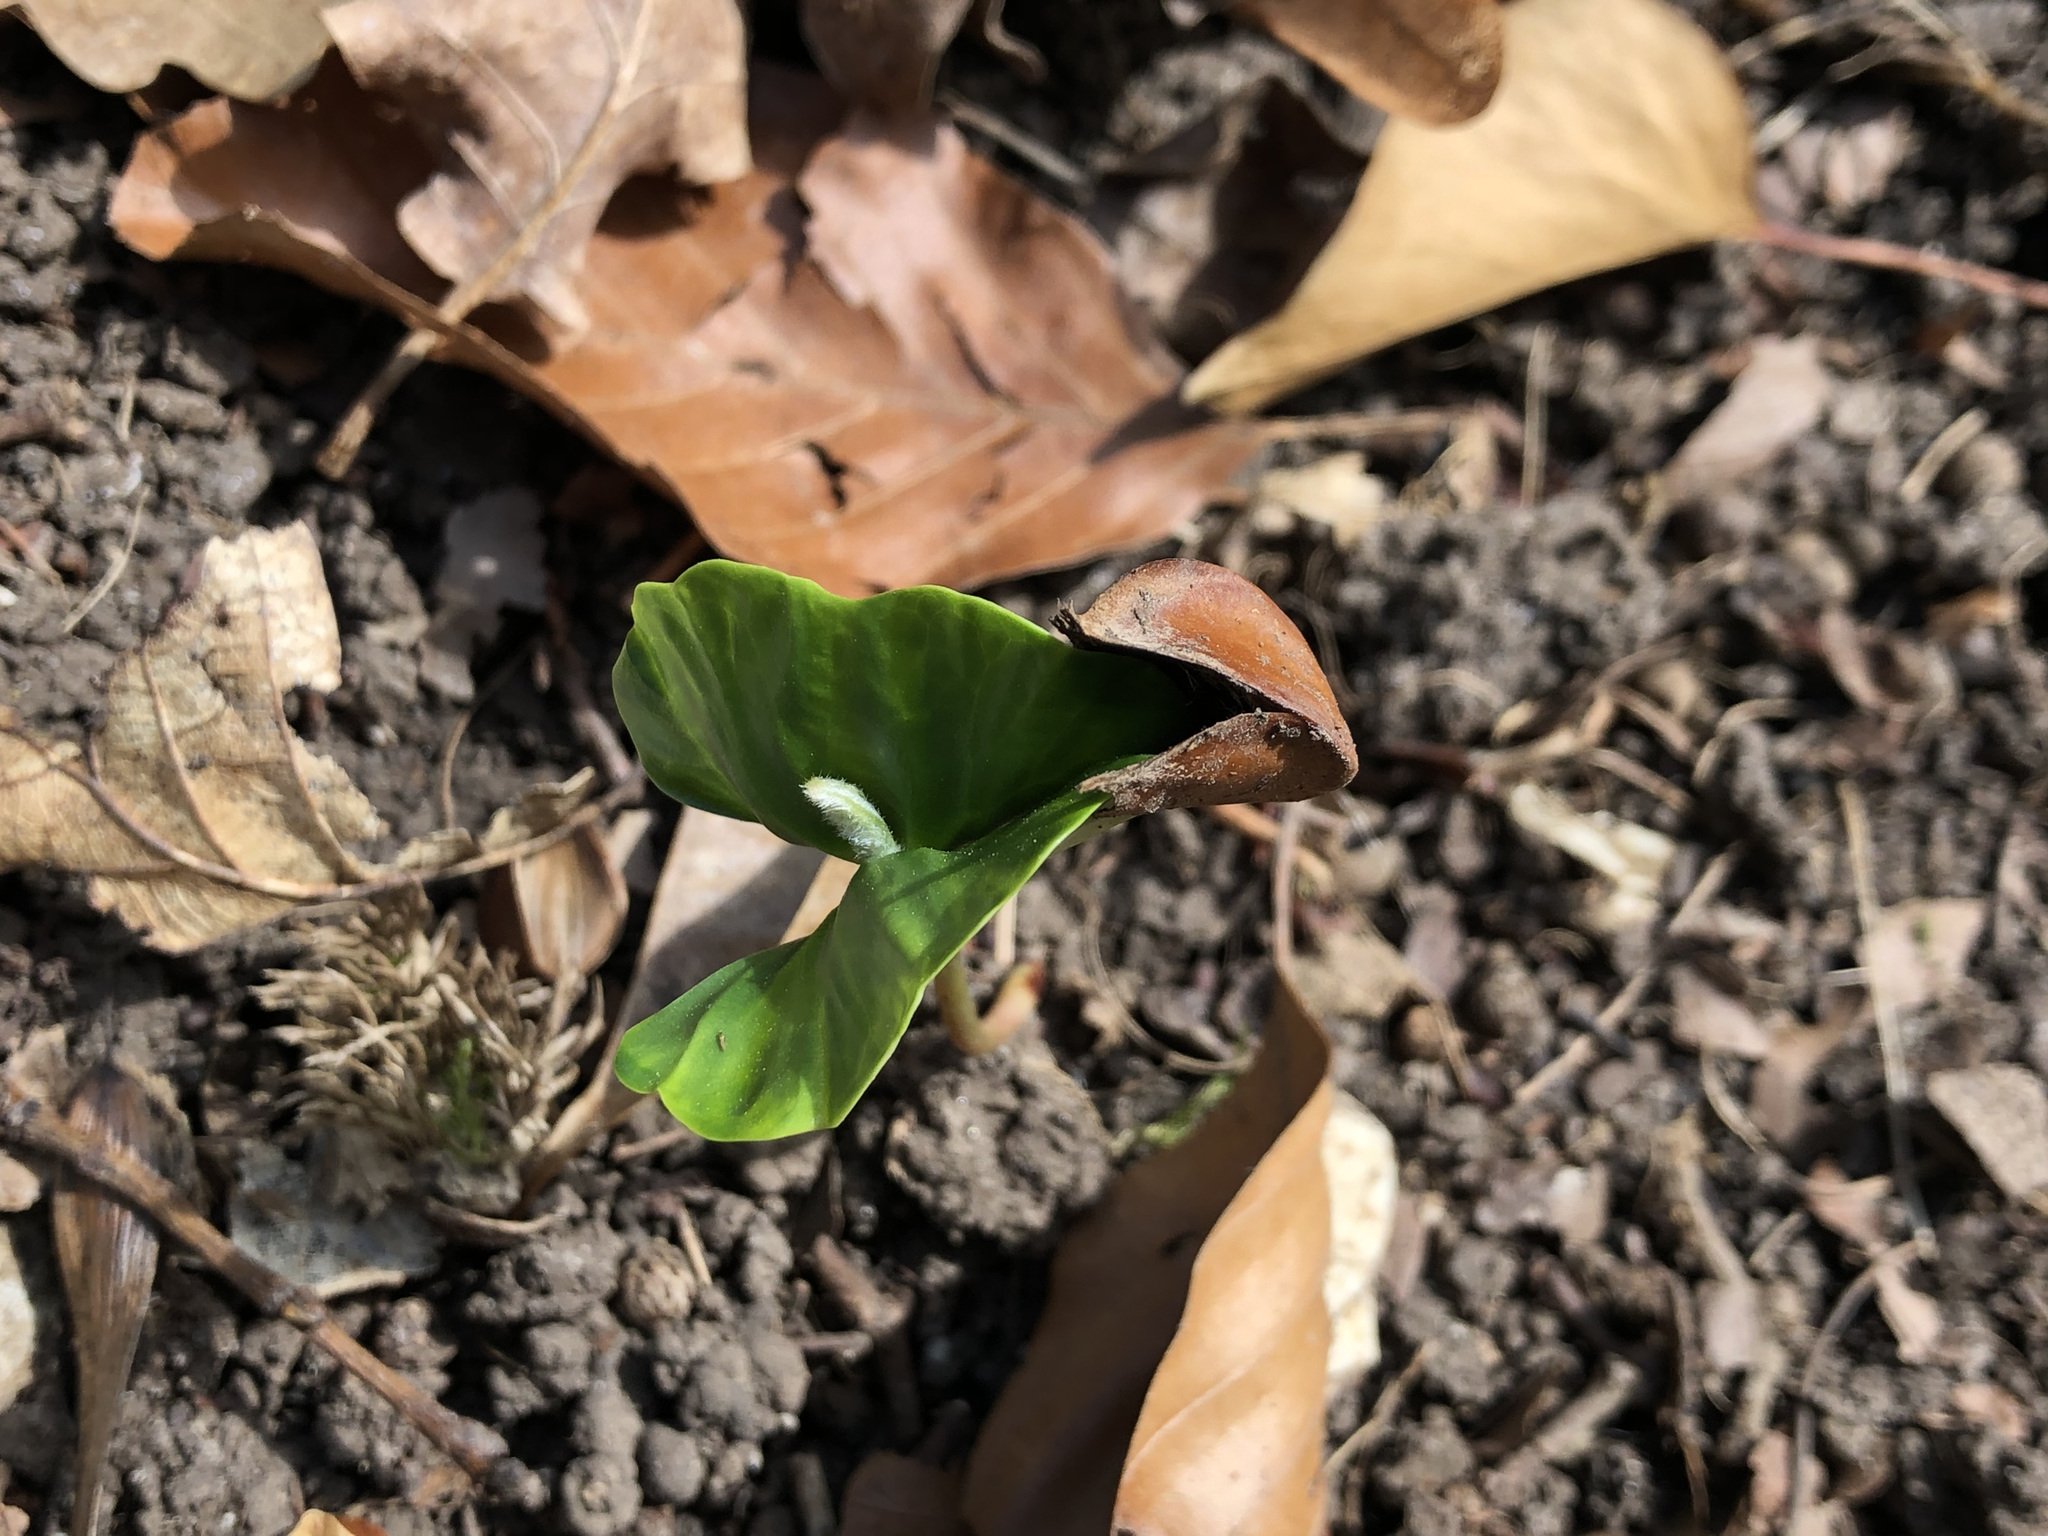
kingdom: Plantae
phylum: Tracheophyta
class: Magnoliopsida
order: Fagales
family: Fagaceae
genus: Fagus
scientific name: Fagus sylvatica
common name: Beech
